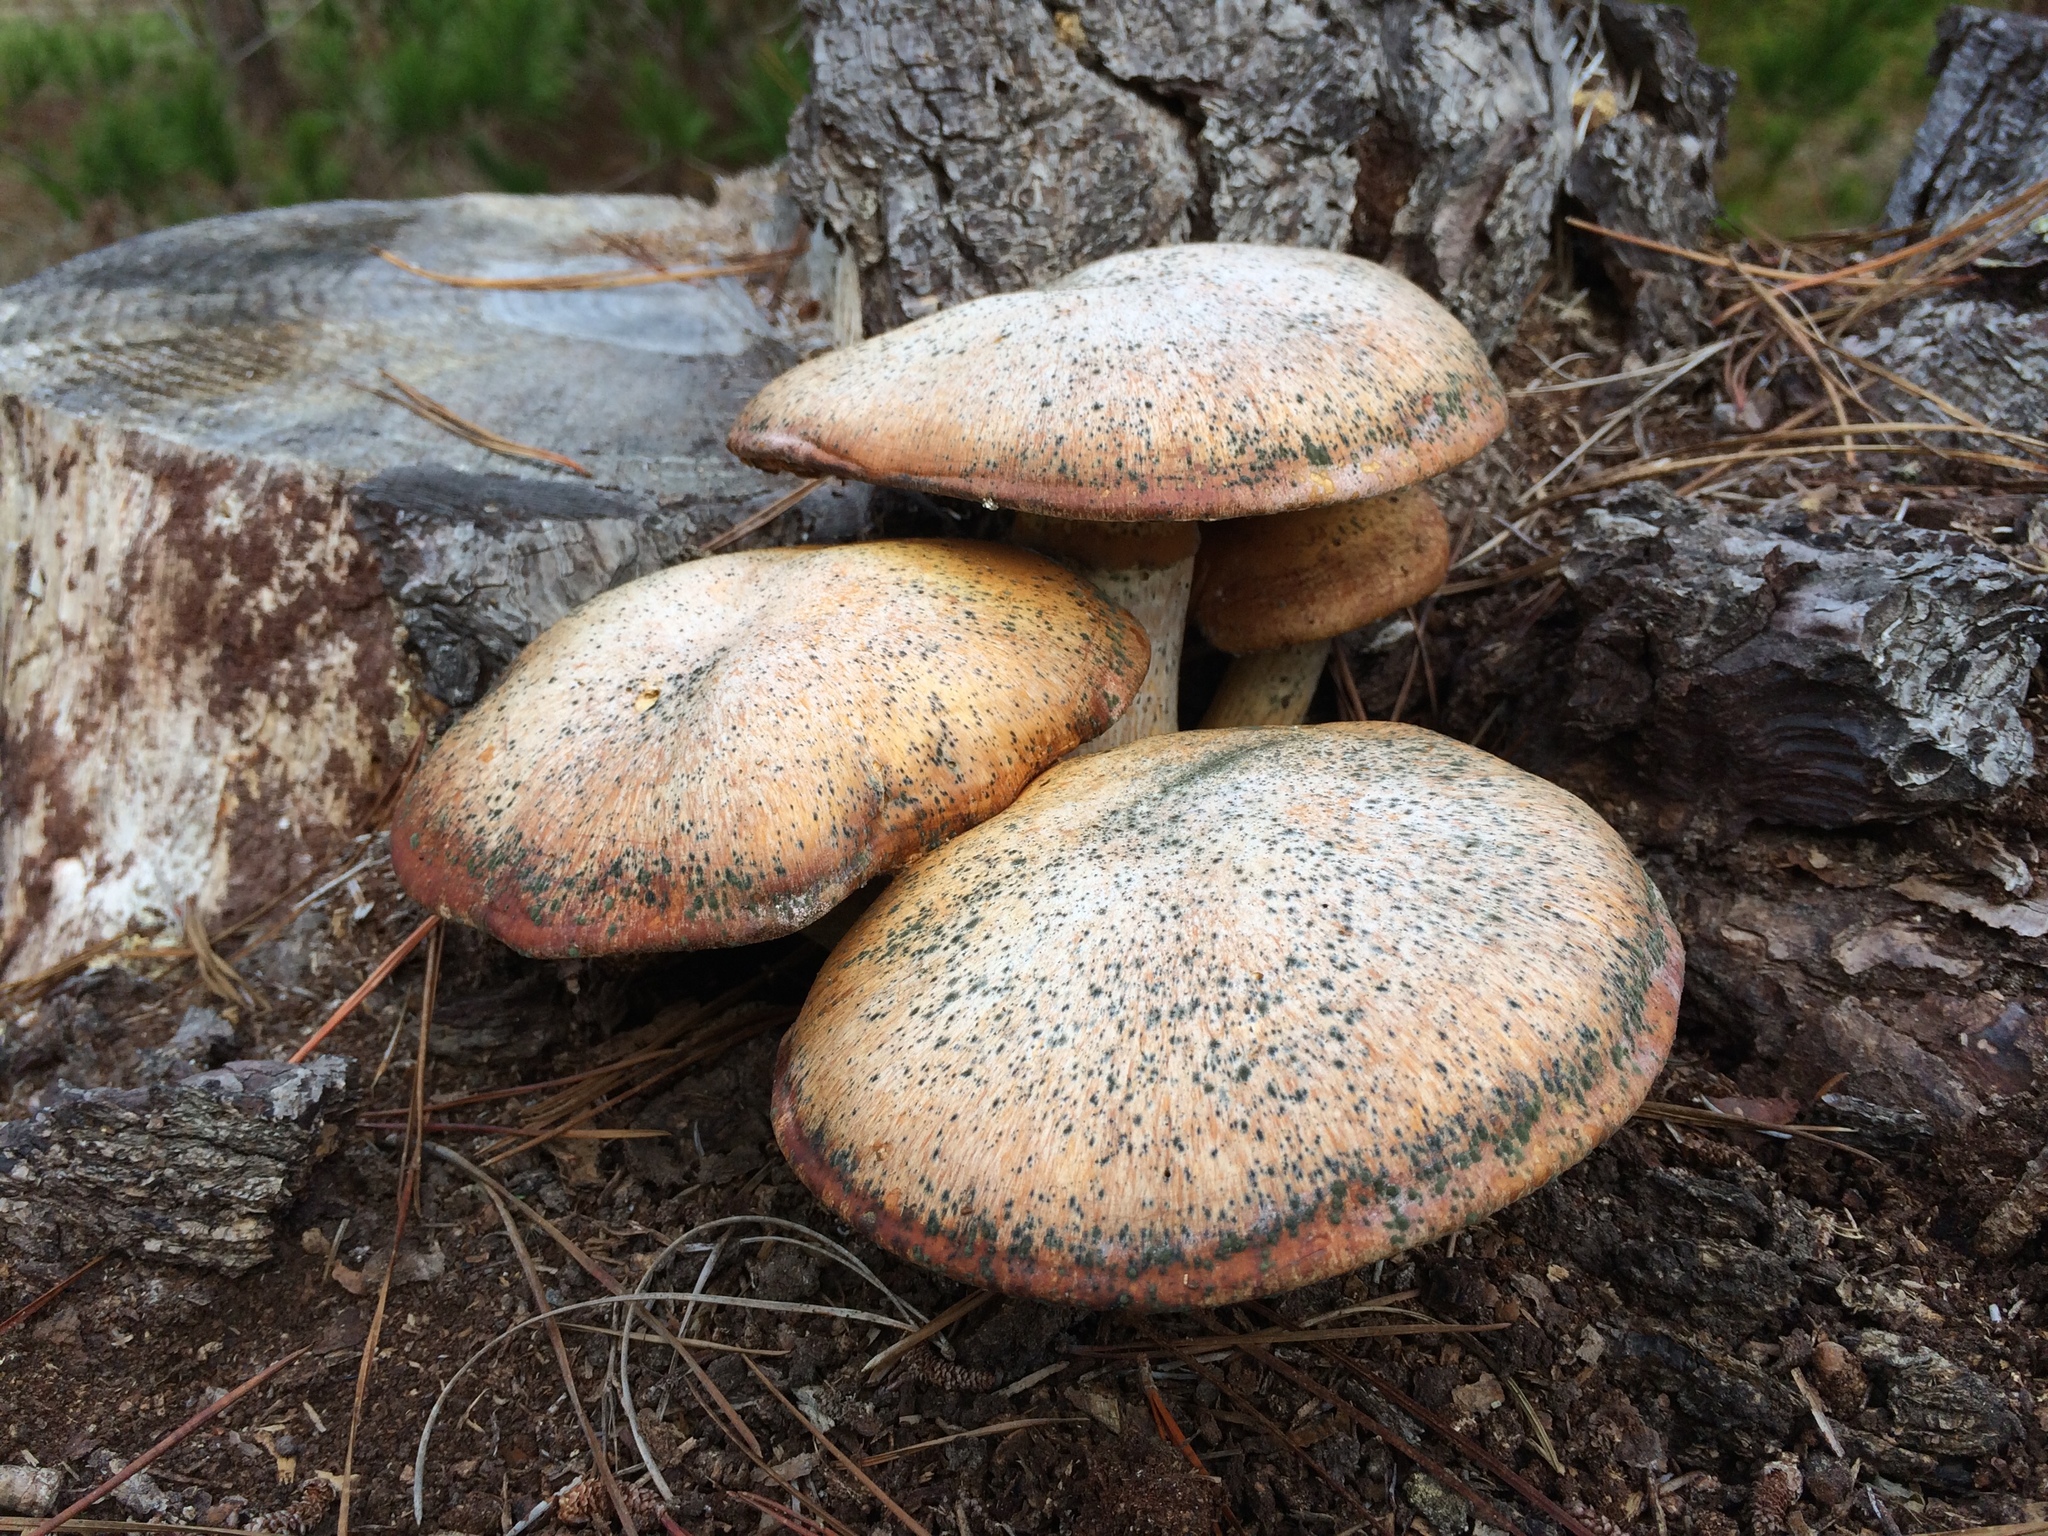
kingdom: Fungi
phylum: Basidiomycota
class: Agaricomycetes
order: Agaricales
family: Hymenogastraceae
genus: Gymnopilus
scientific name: Gymnopilus ventricosus
